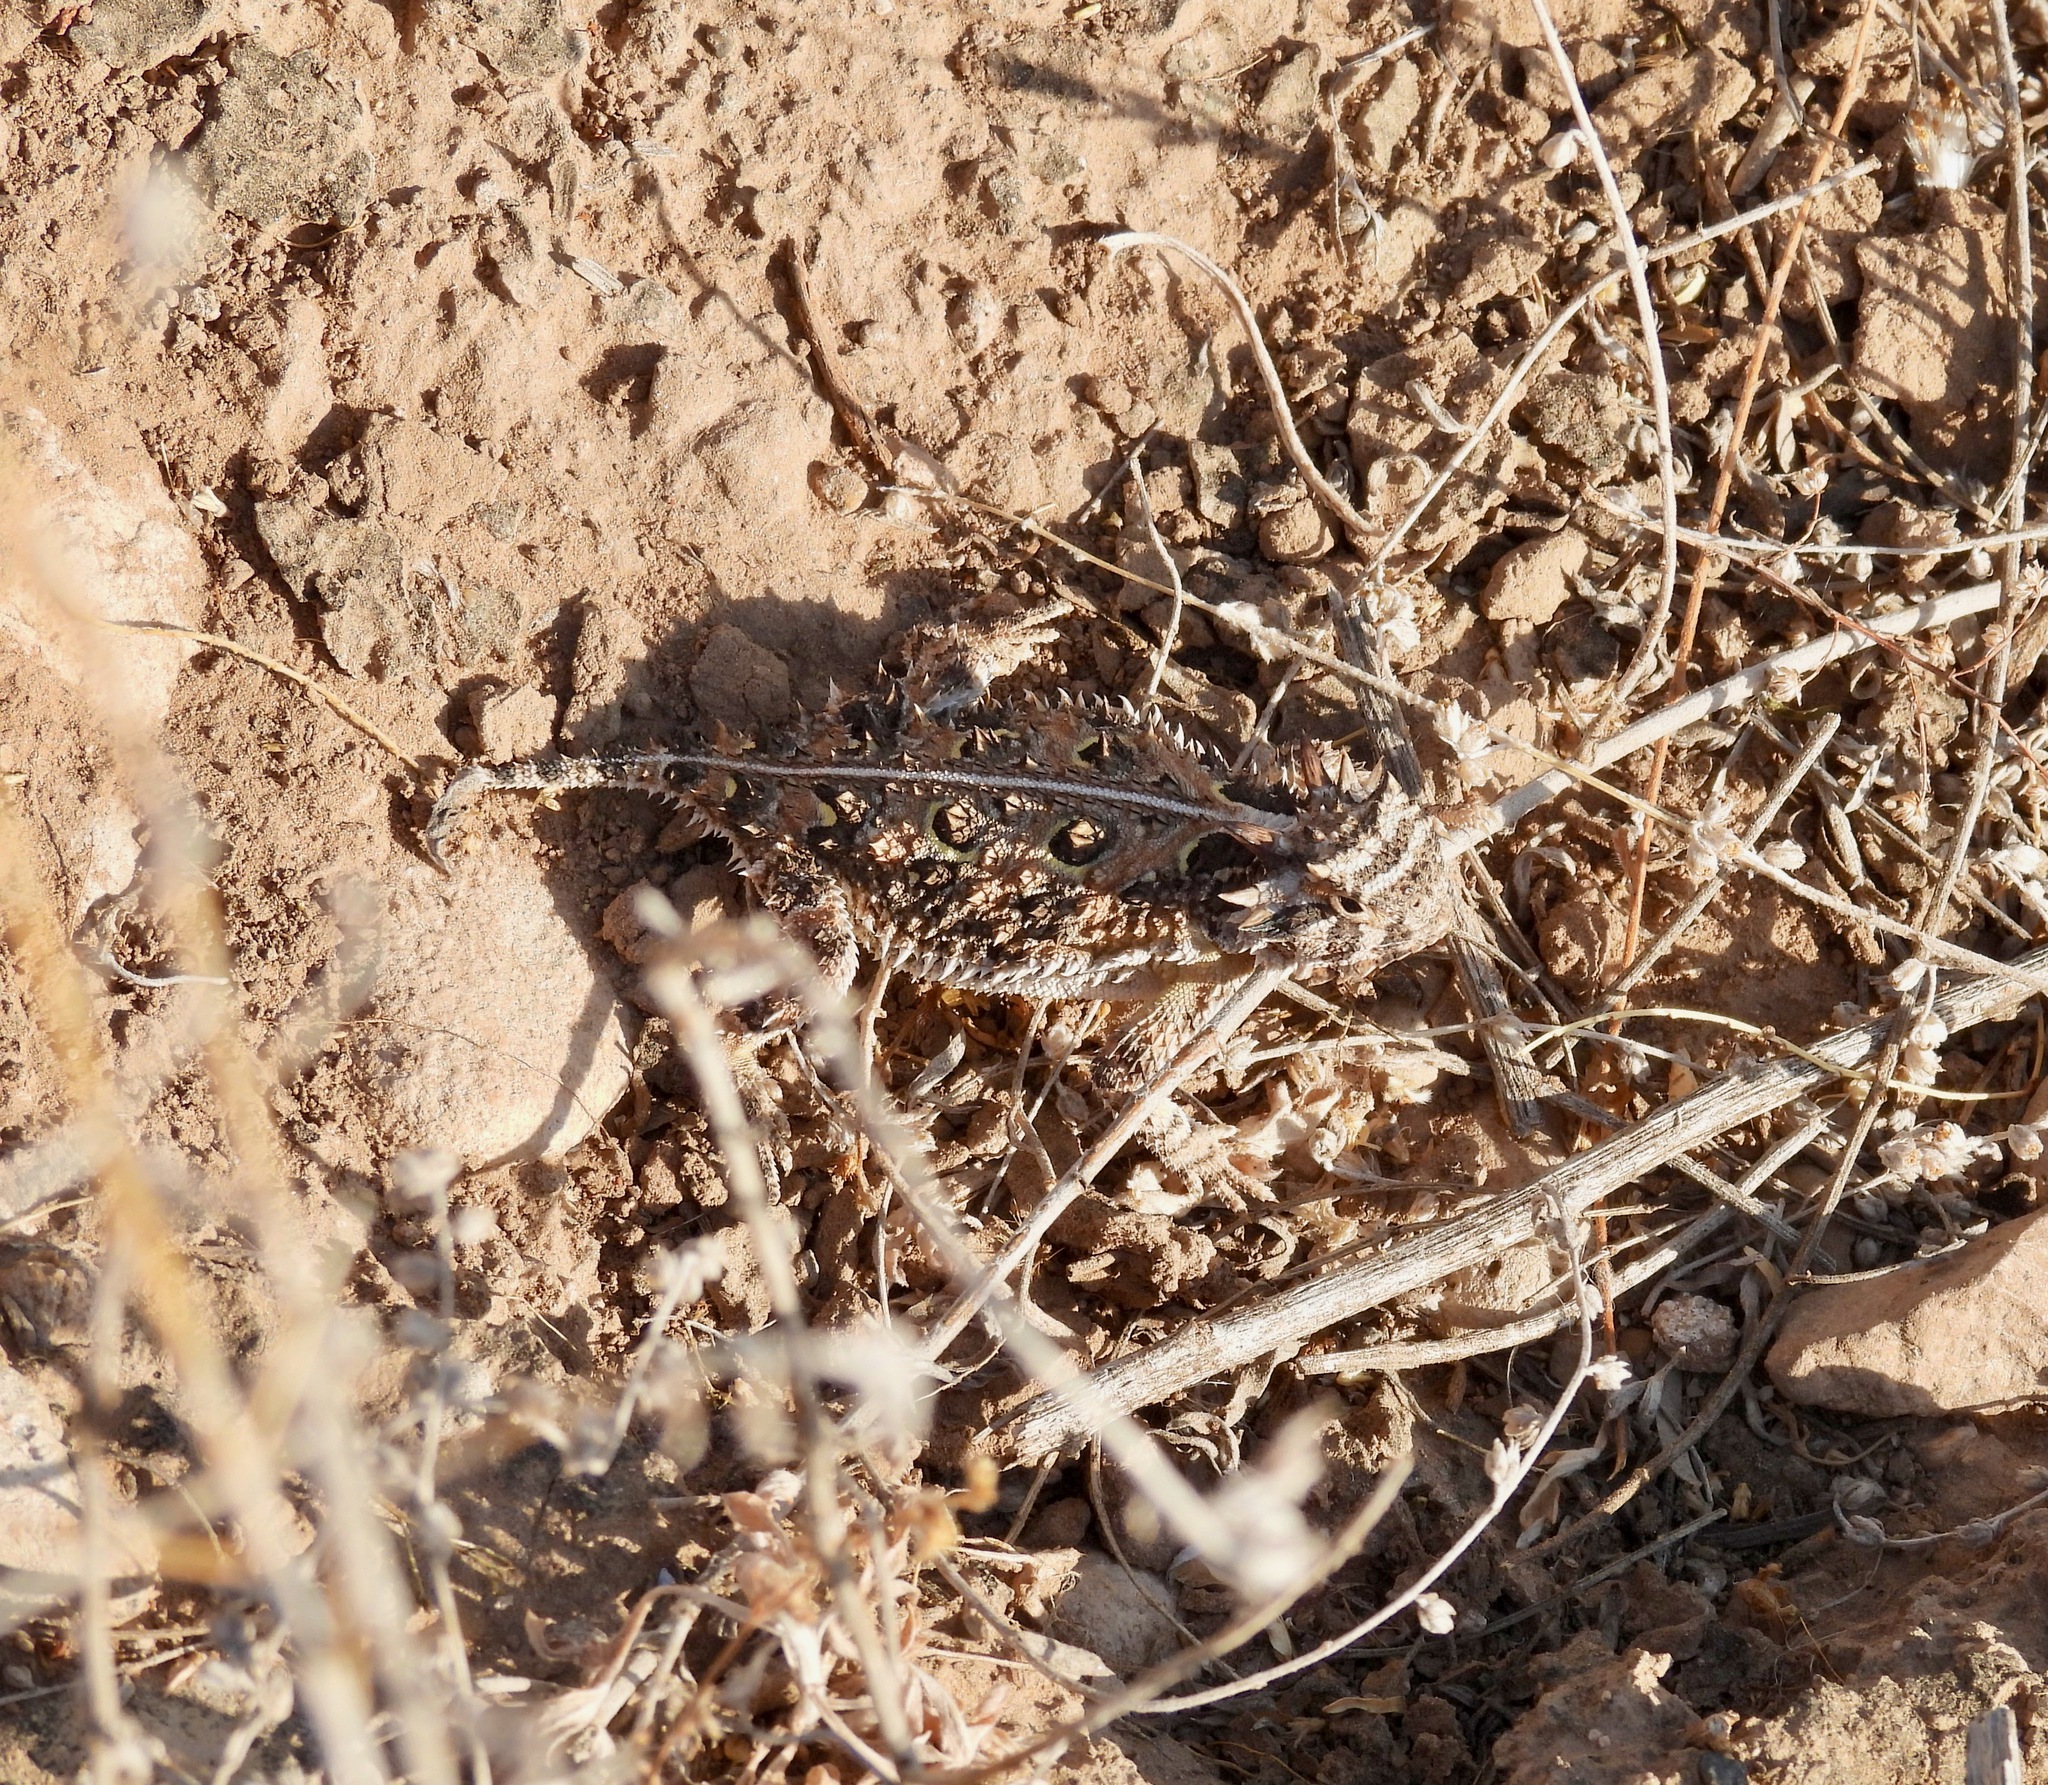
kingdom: Animalia
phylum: Chordata
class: Squamata
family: Phrynosomatidae
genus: Phrynosoma
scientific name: Phrynosoma cornutum
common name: Texas horned lizard
